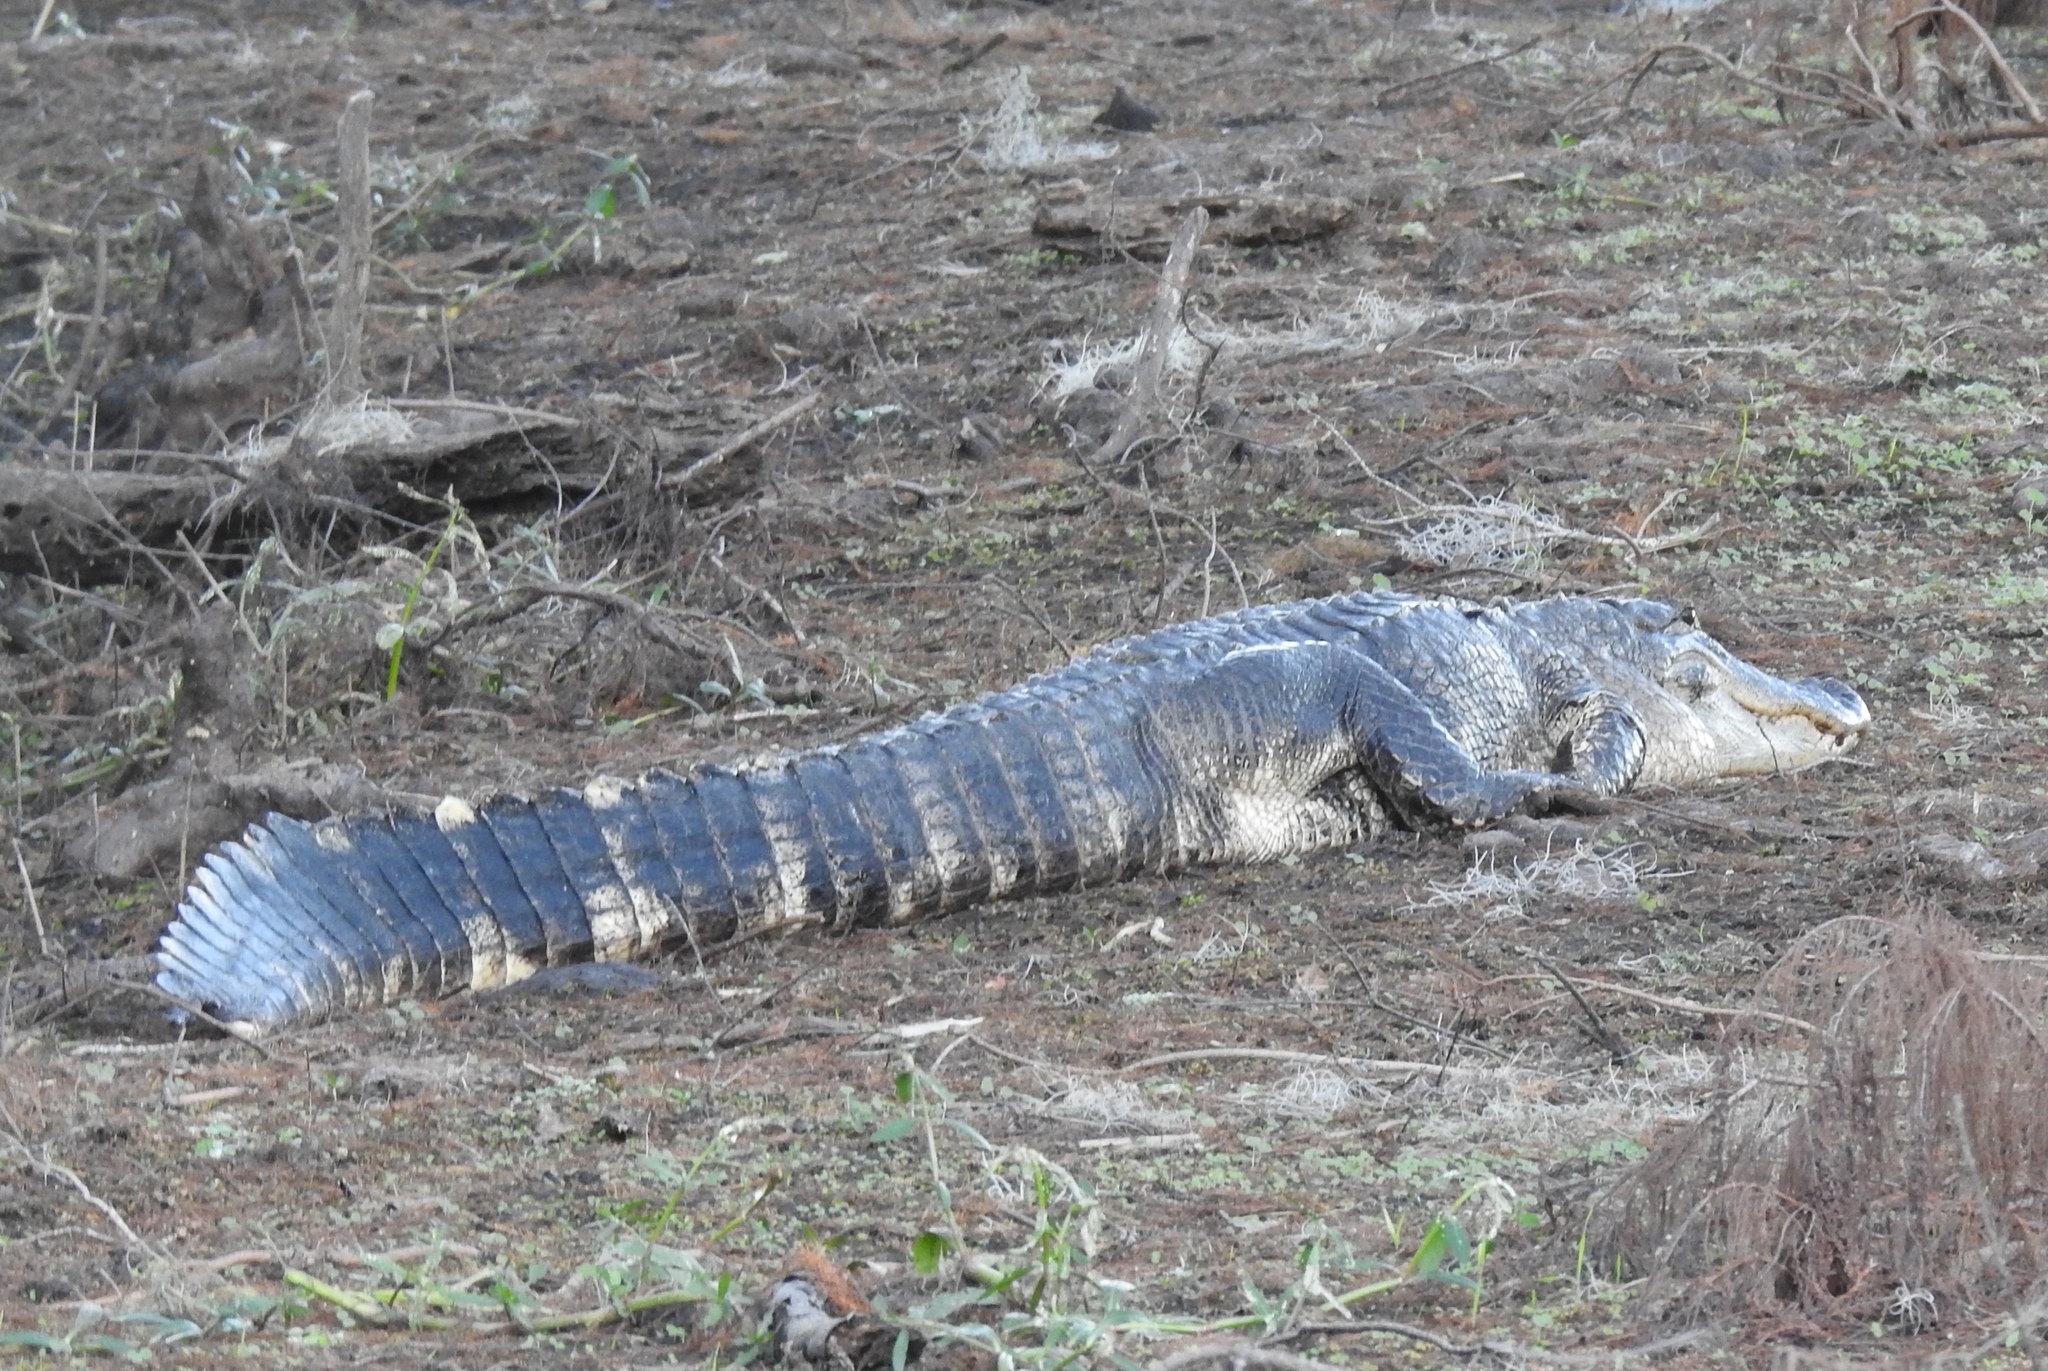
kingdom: Animalia
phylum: Chordata
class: Crocodylia
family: Alligatoridae
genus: Alligator
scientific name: Alligator mississippiensis
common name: American alligator
